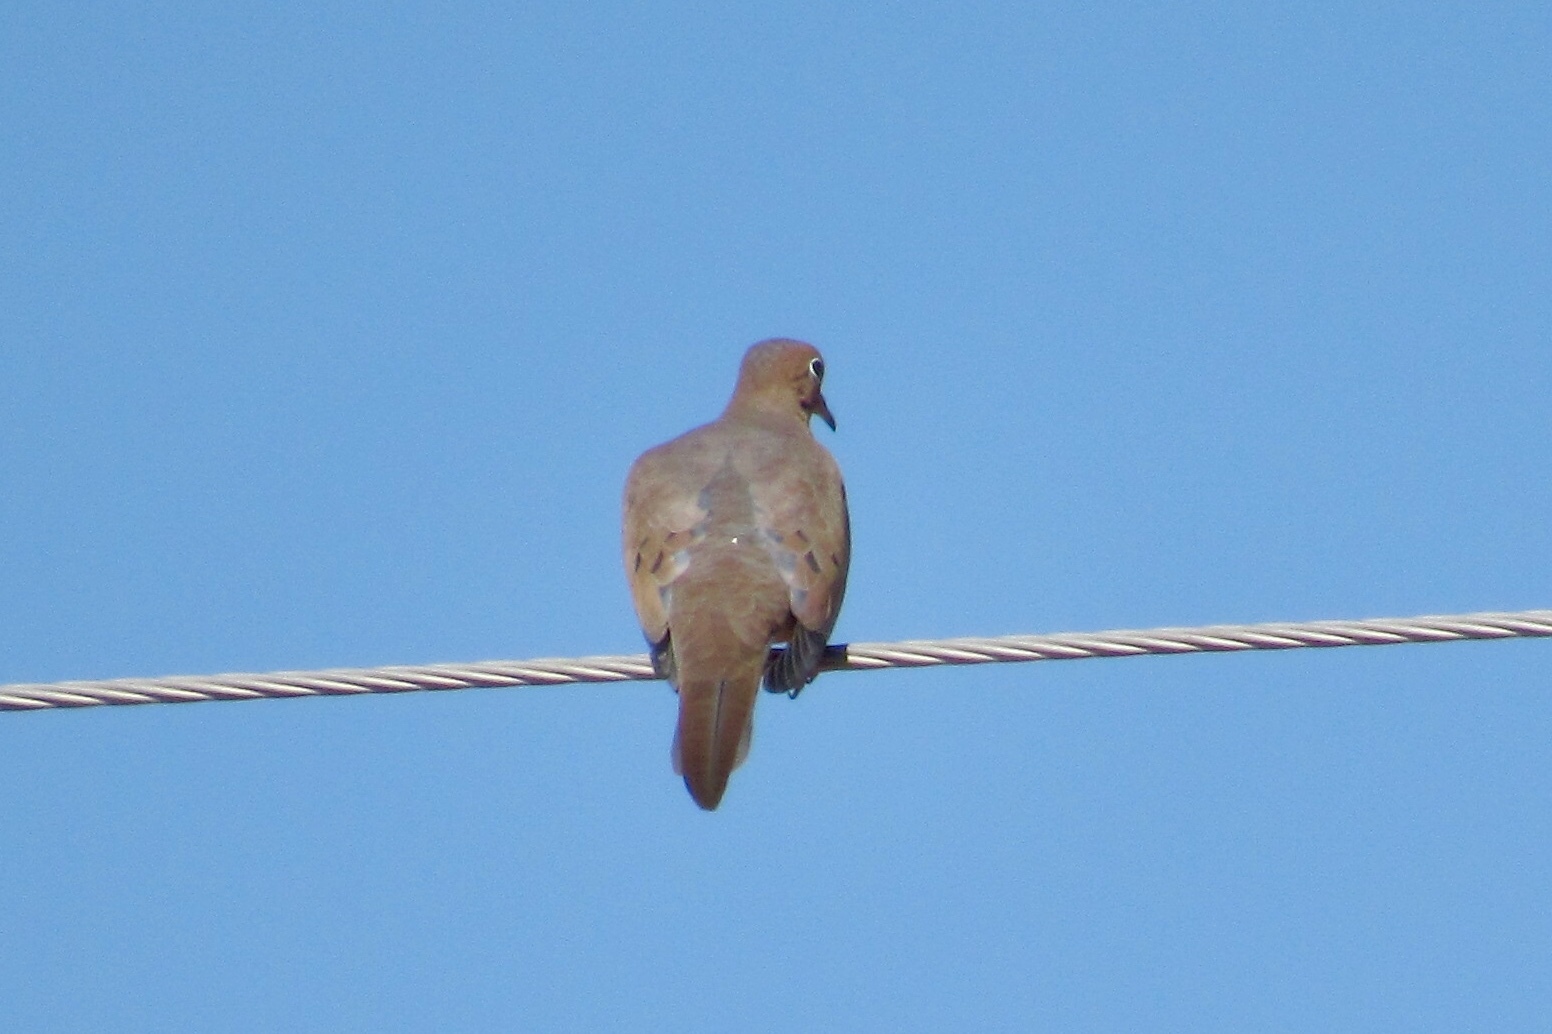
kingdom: Animalia
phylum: Chordata
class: Aves
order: Columbiformes
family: Columbidae
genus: Zenaida
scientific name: Zenaida macroura
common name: Mourning dove
